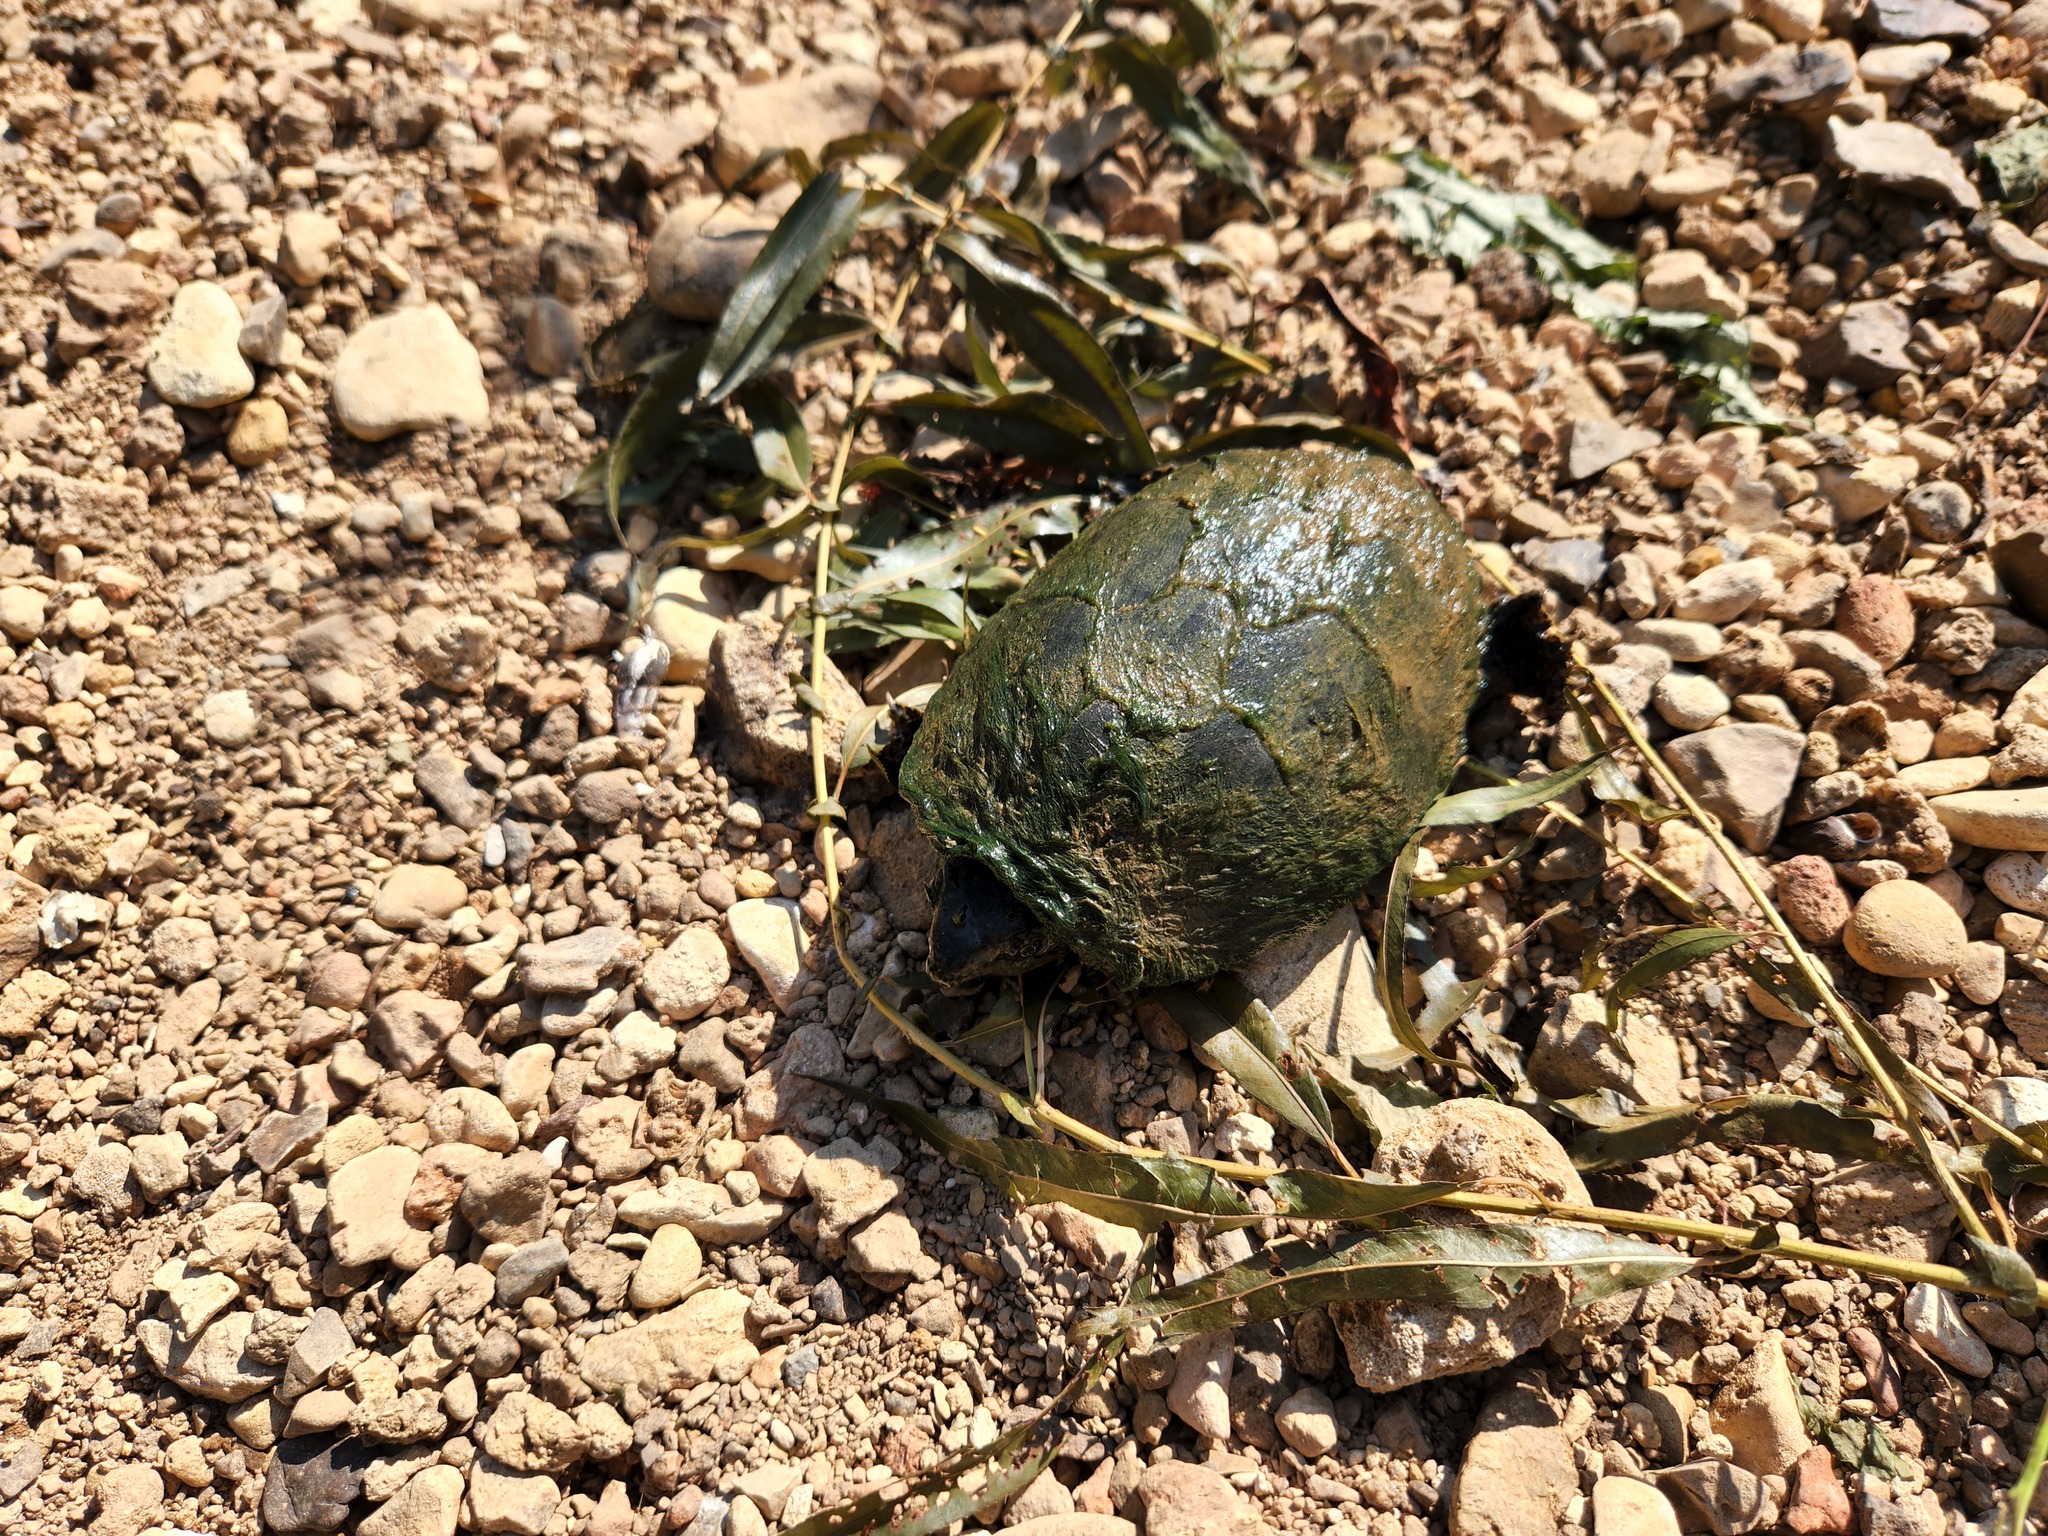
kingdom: Animalia
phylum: Chordata
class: Testudines
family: Kinosternidae
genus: Sternotherus
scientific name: Sternotherus odoratus
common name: Common musk turtle
